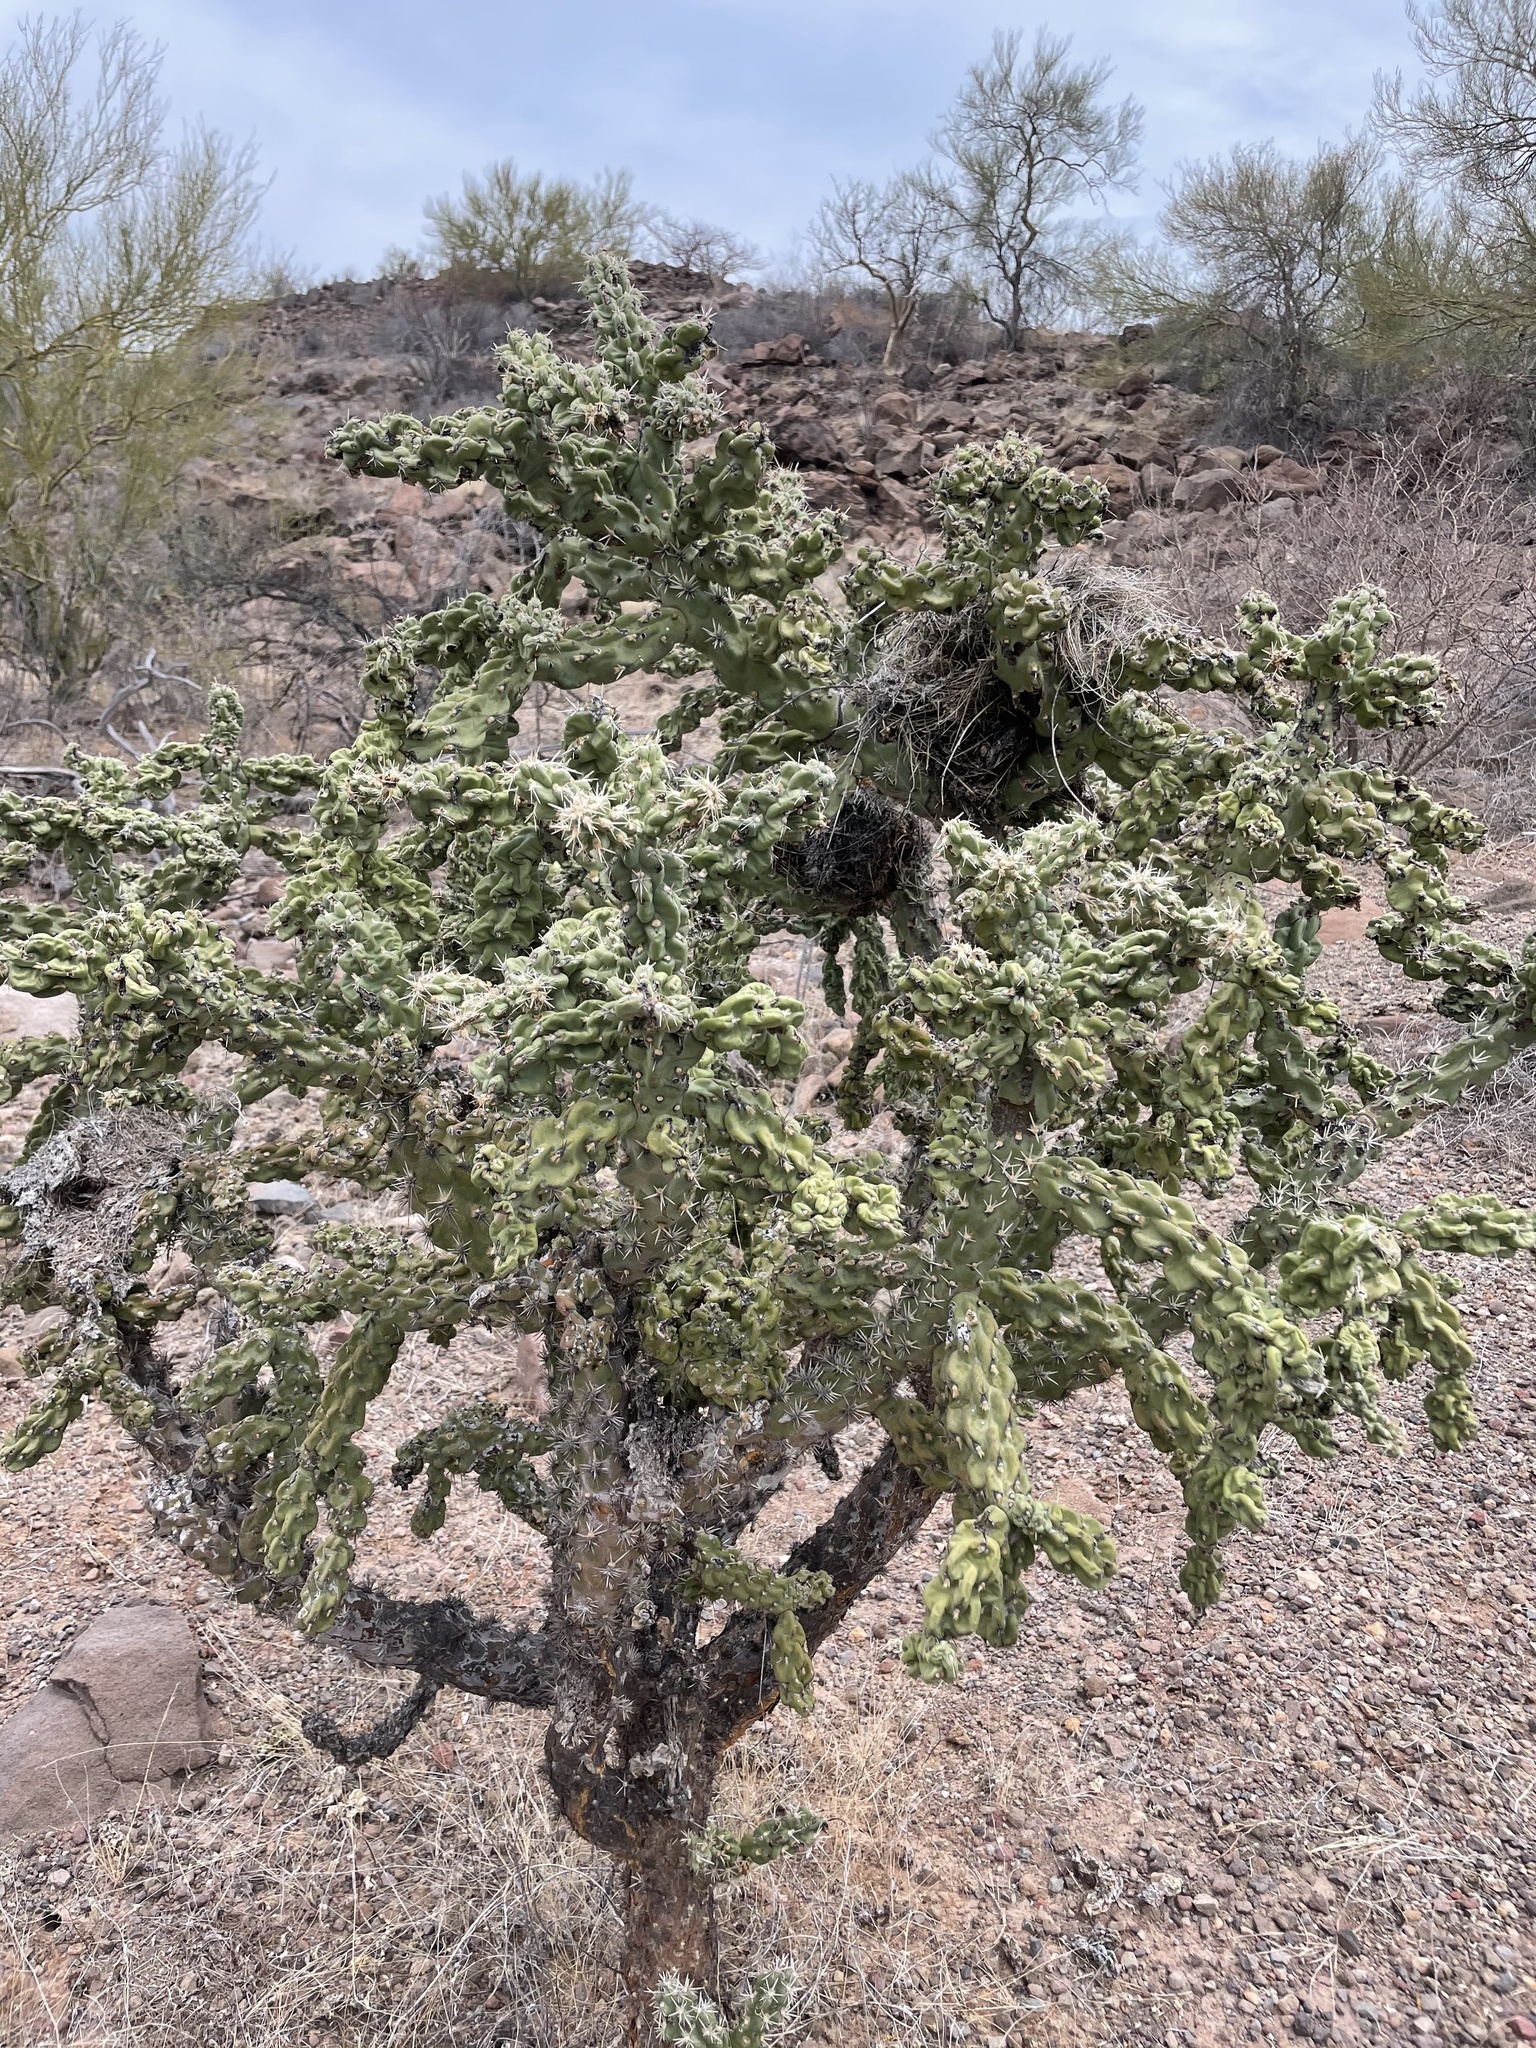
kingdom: Plantae
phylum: Tracheophyta
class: Magnoliopsida
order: Caryophyllales
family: Cactaceae
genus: Cylindropuntia
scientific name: Cylindropuntia cholla
